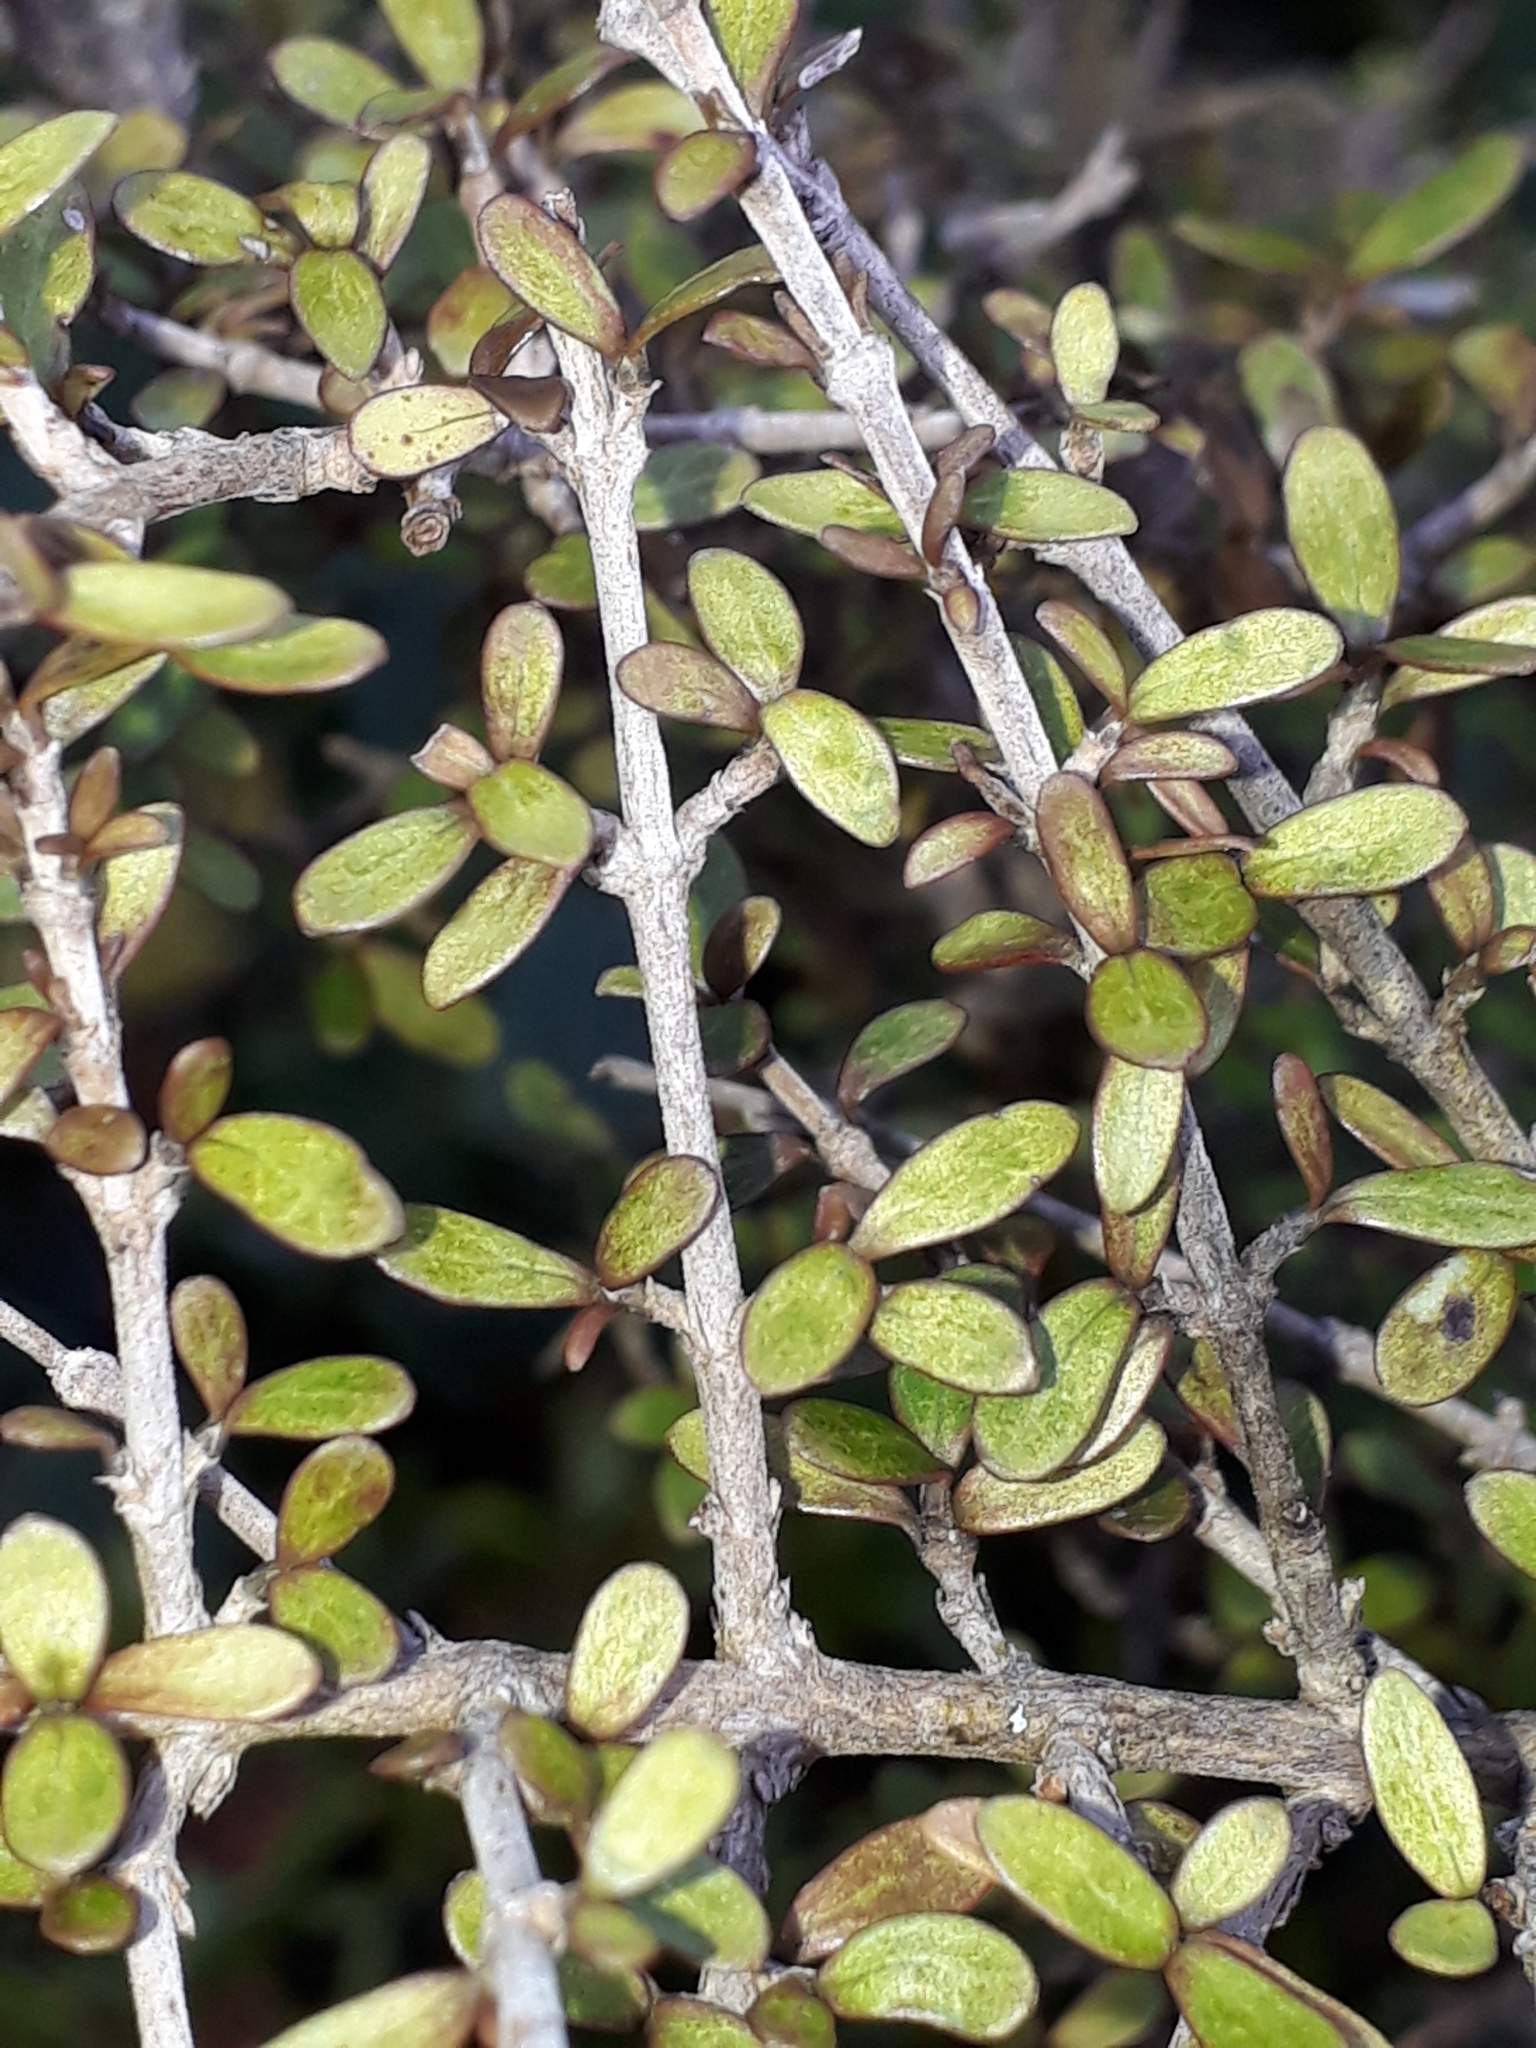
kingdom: Plantae
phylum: Tracheophyta
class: Magnoliopsida
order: Gentianales
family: Rubiaceae
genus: Coprosma
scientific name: Coprosma dumosa
